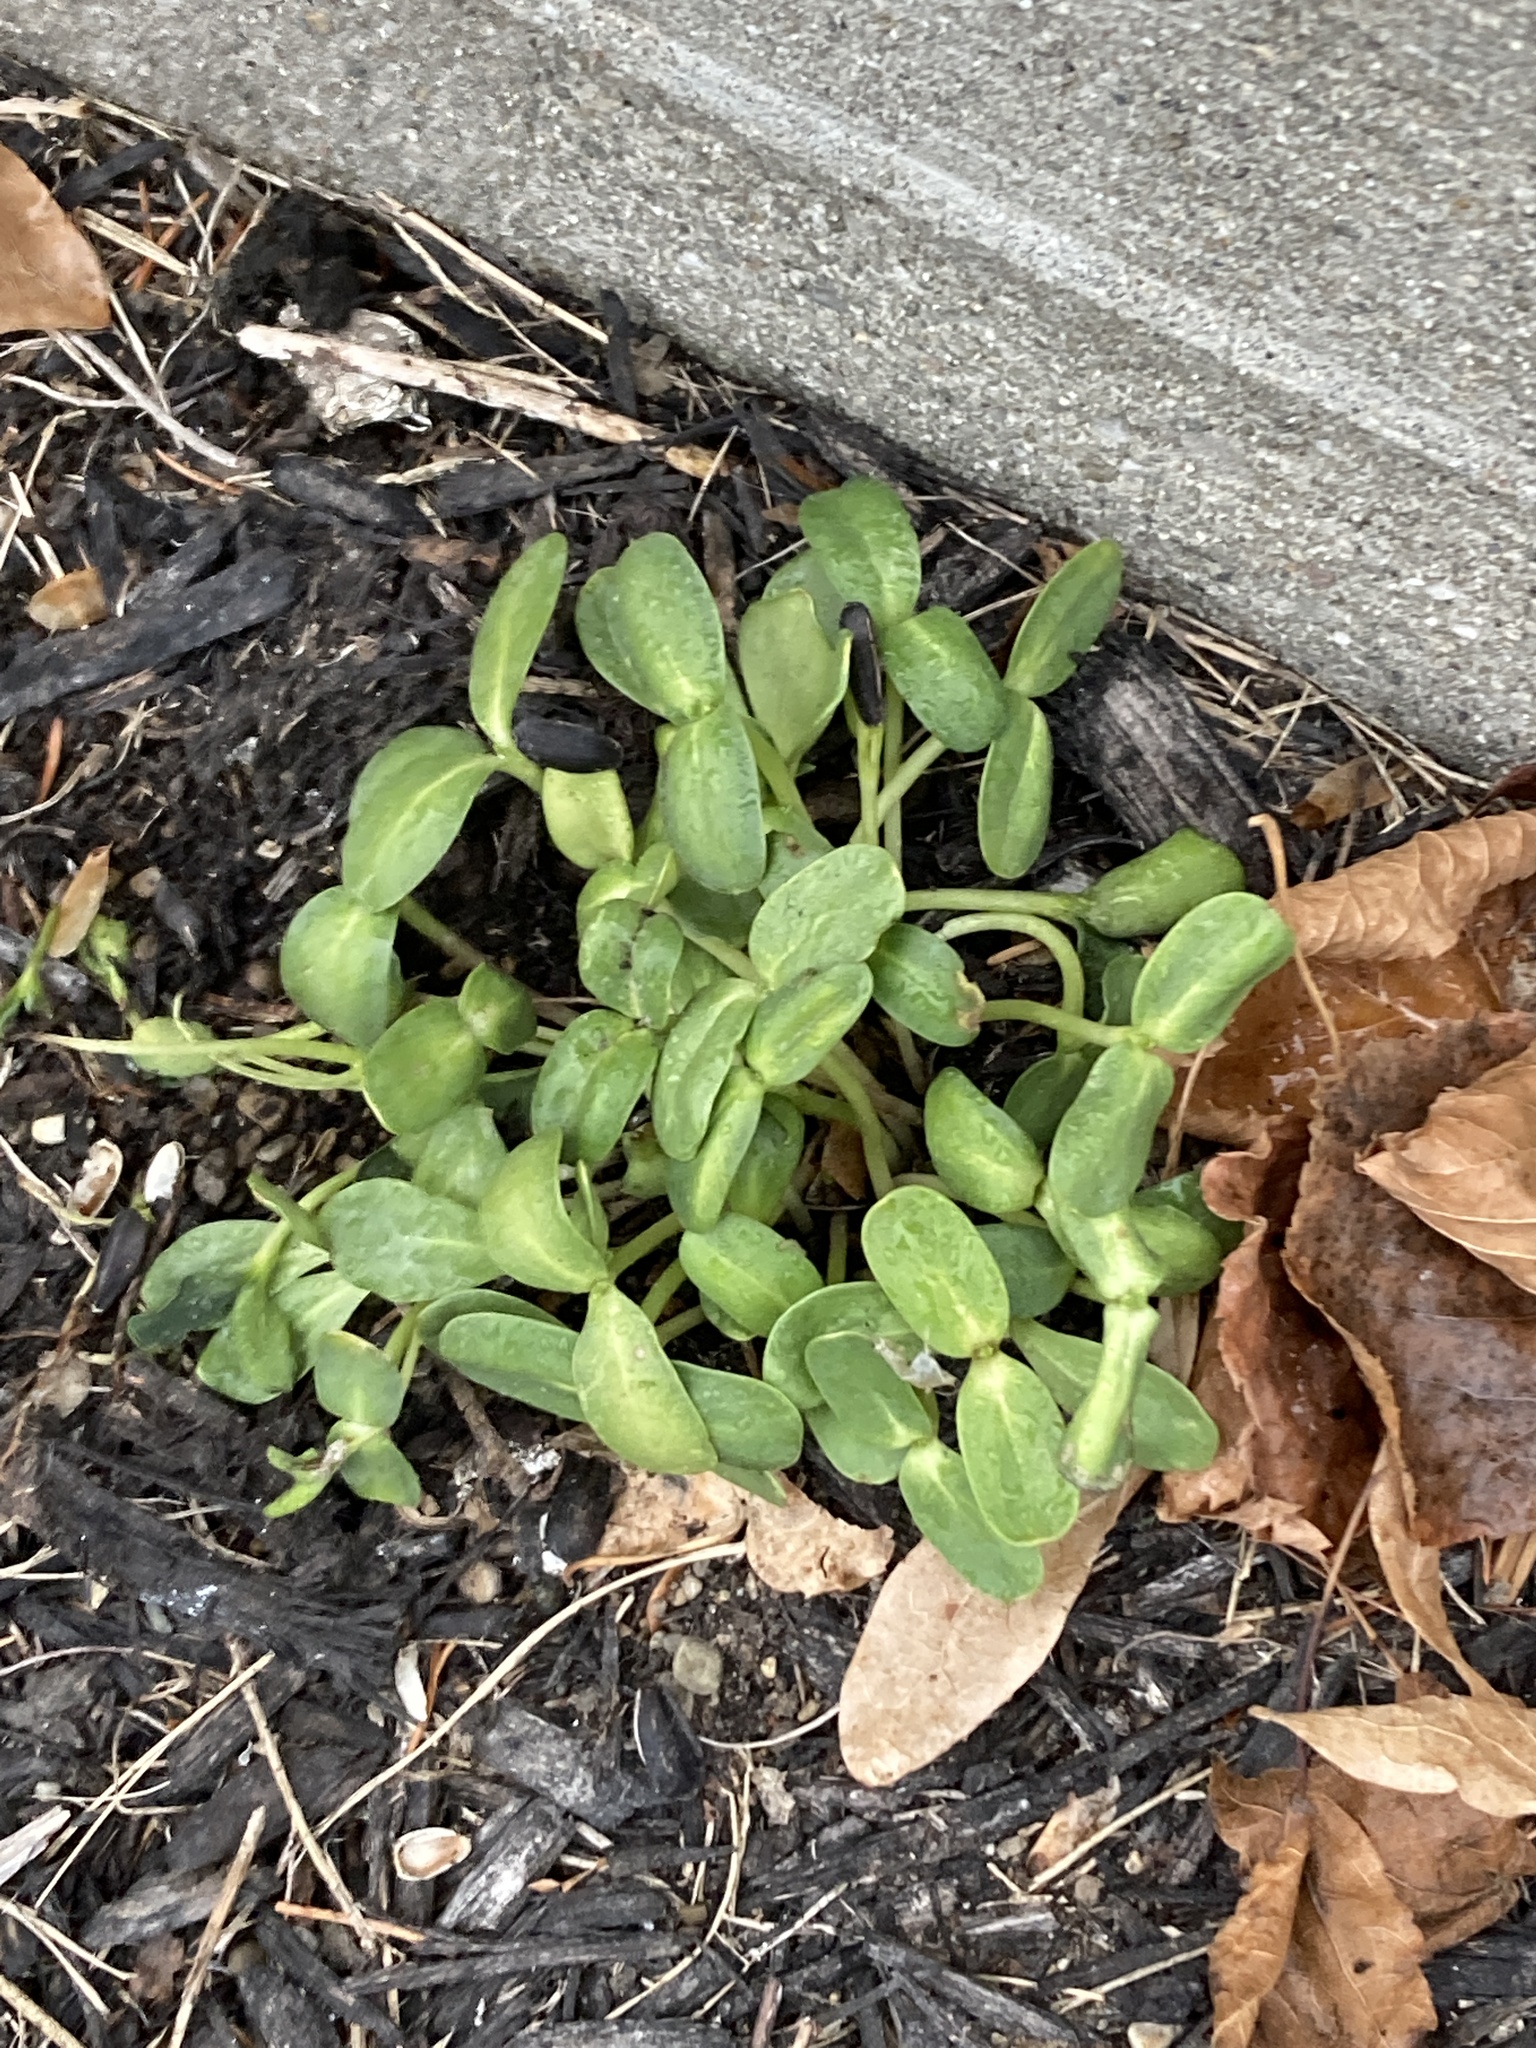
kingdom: Plantae
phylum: Tracheophyta
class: Magnoliopsida
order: Asterales
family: Asteraceae
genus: Helianthus
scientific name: Helianthus annuus
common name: Sunflower
